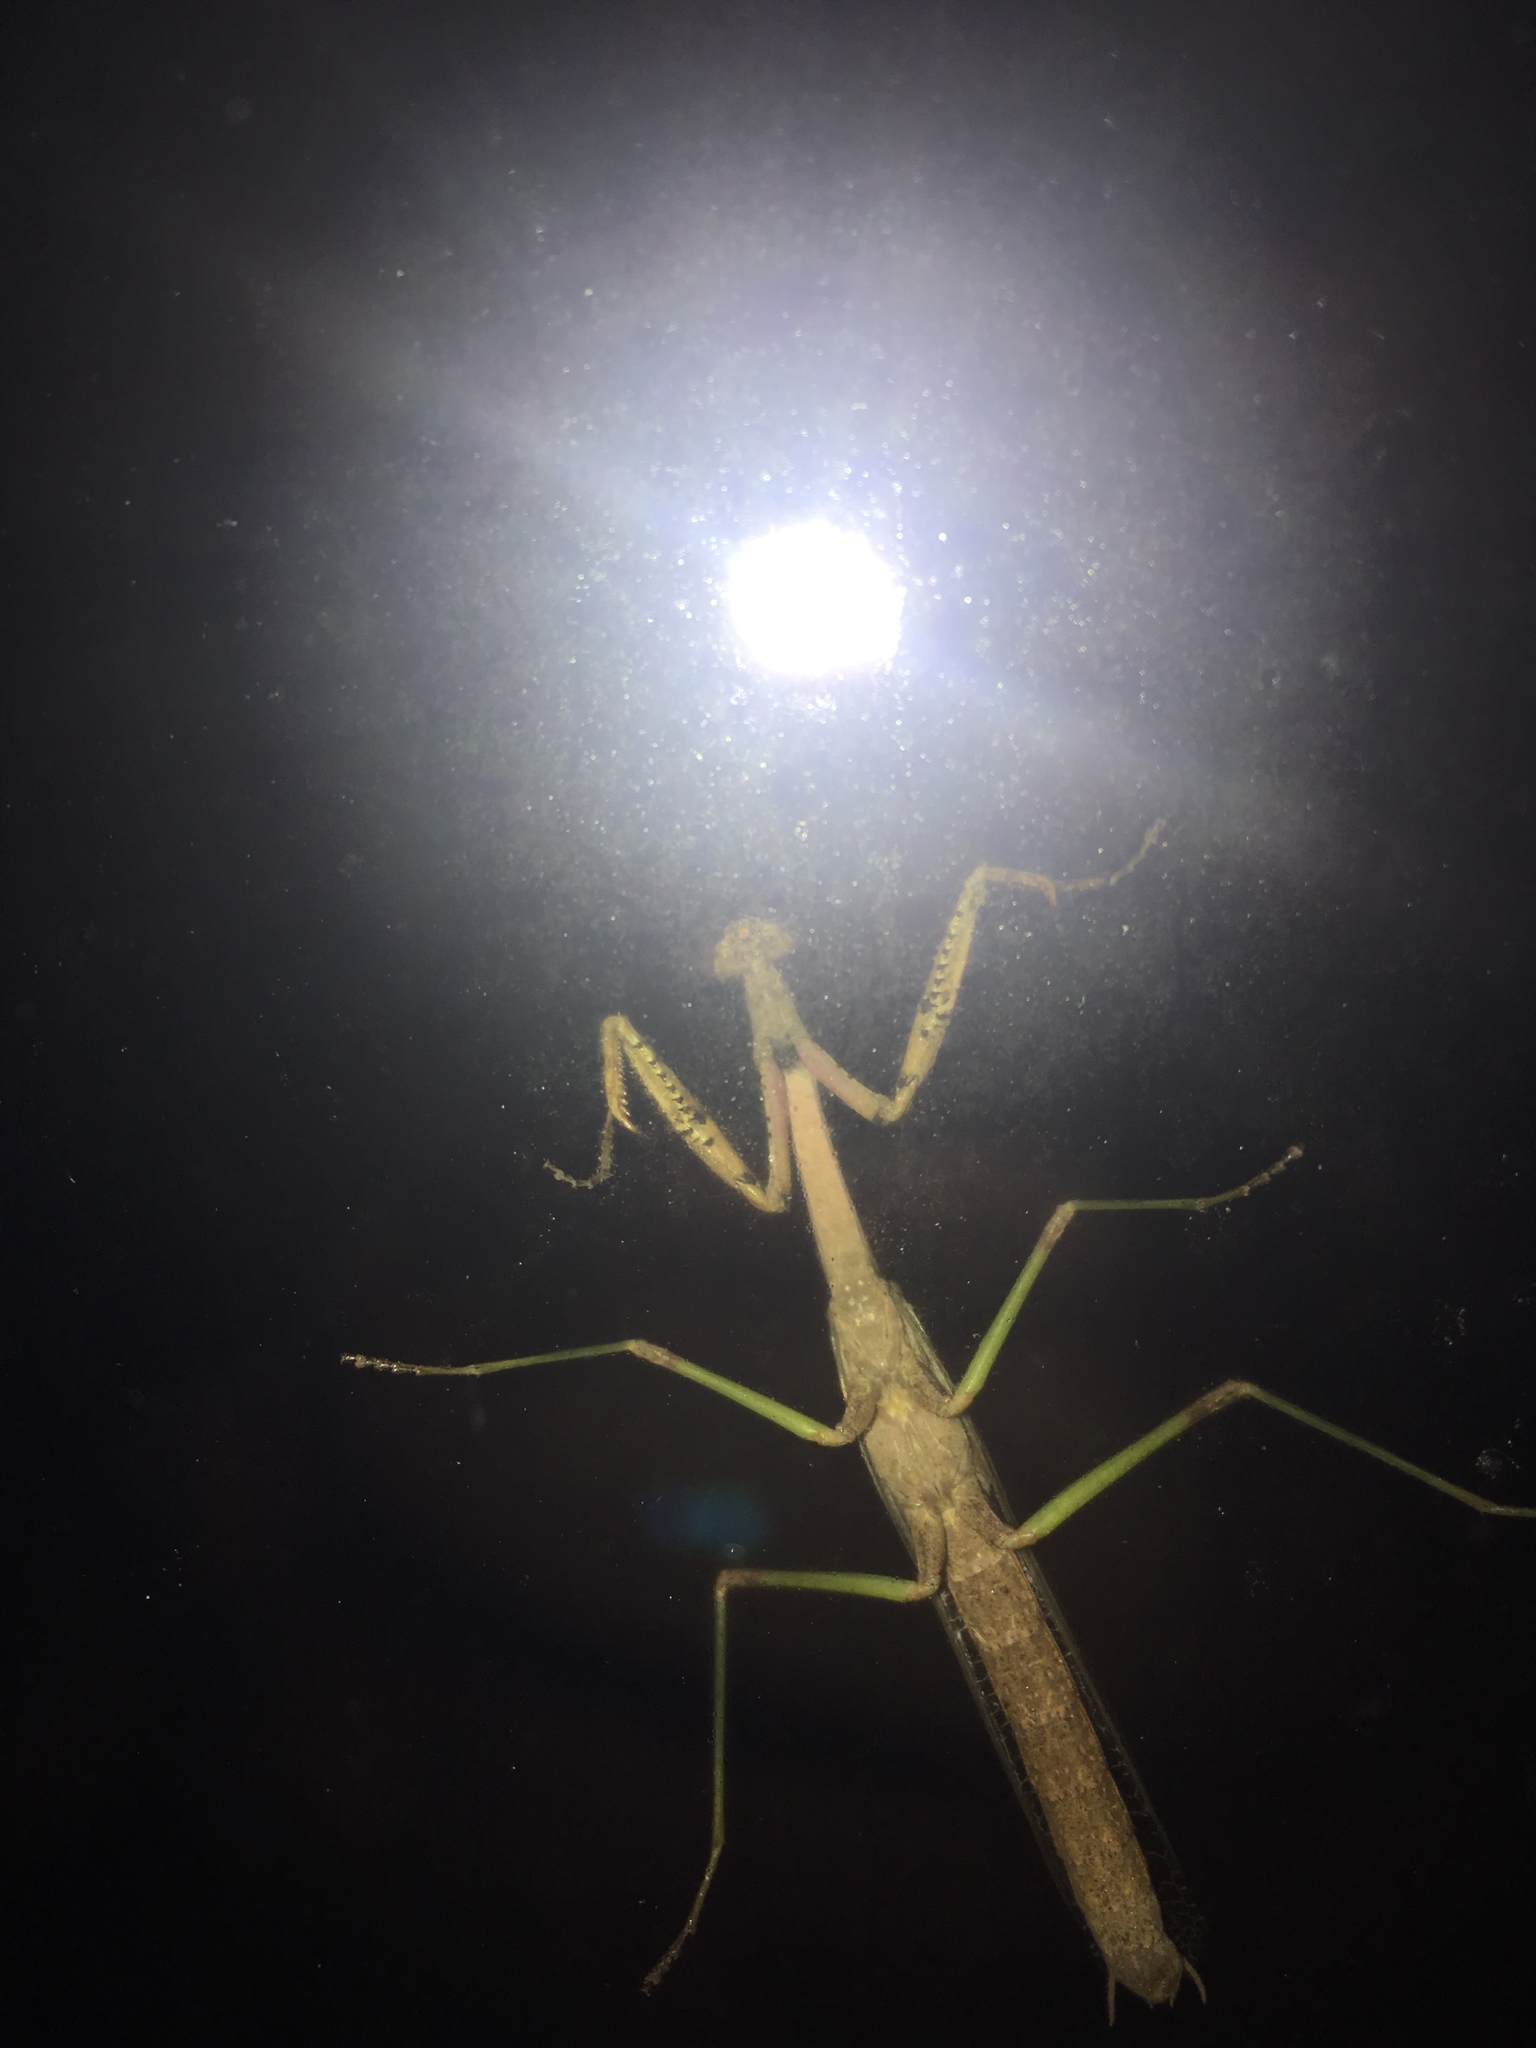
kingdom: Animalia
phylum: Arthropoda
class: Insecta
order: Mantodea
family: Mantidae
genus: Stagmomantis
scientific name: Stagmomantis carolina
